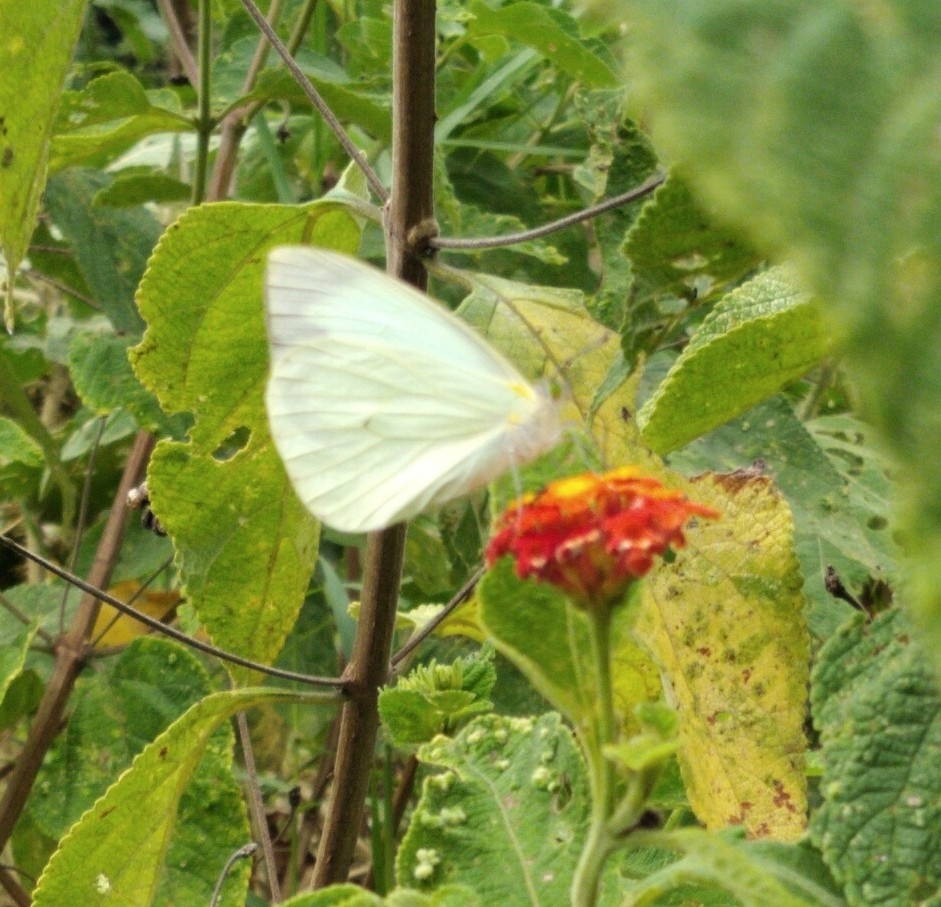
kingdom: Animalia
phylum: Arthropoda
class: Insecta
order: Lepidoptera
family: Pieridae
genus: Leptophobia
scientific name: Leptophobia aripa
